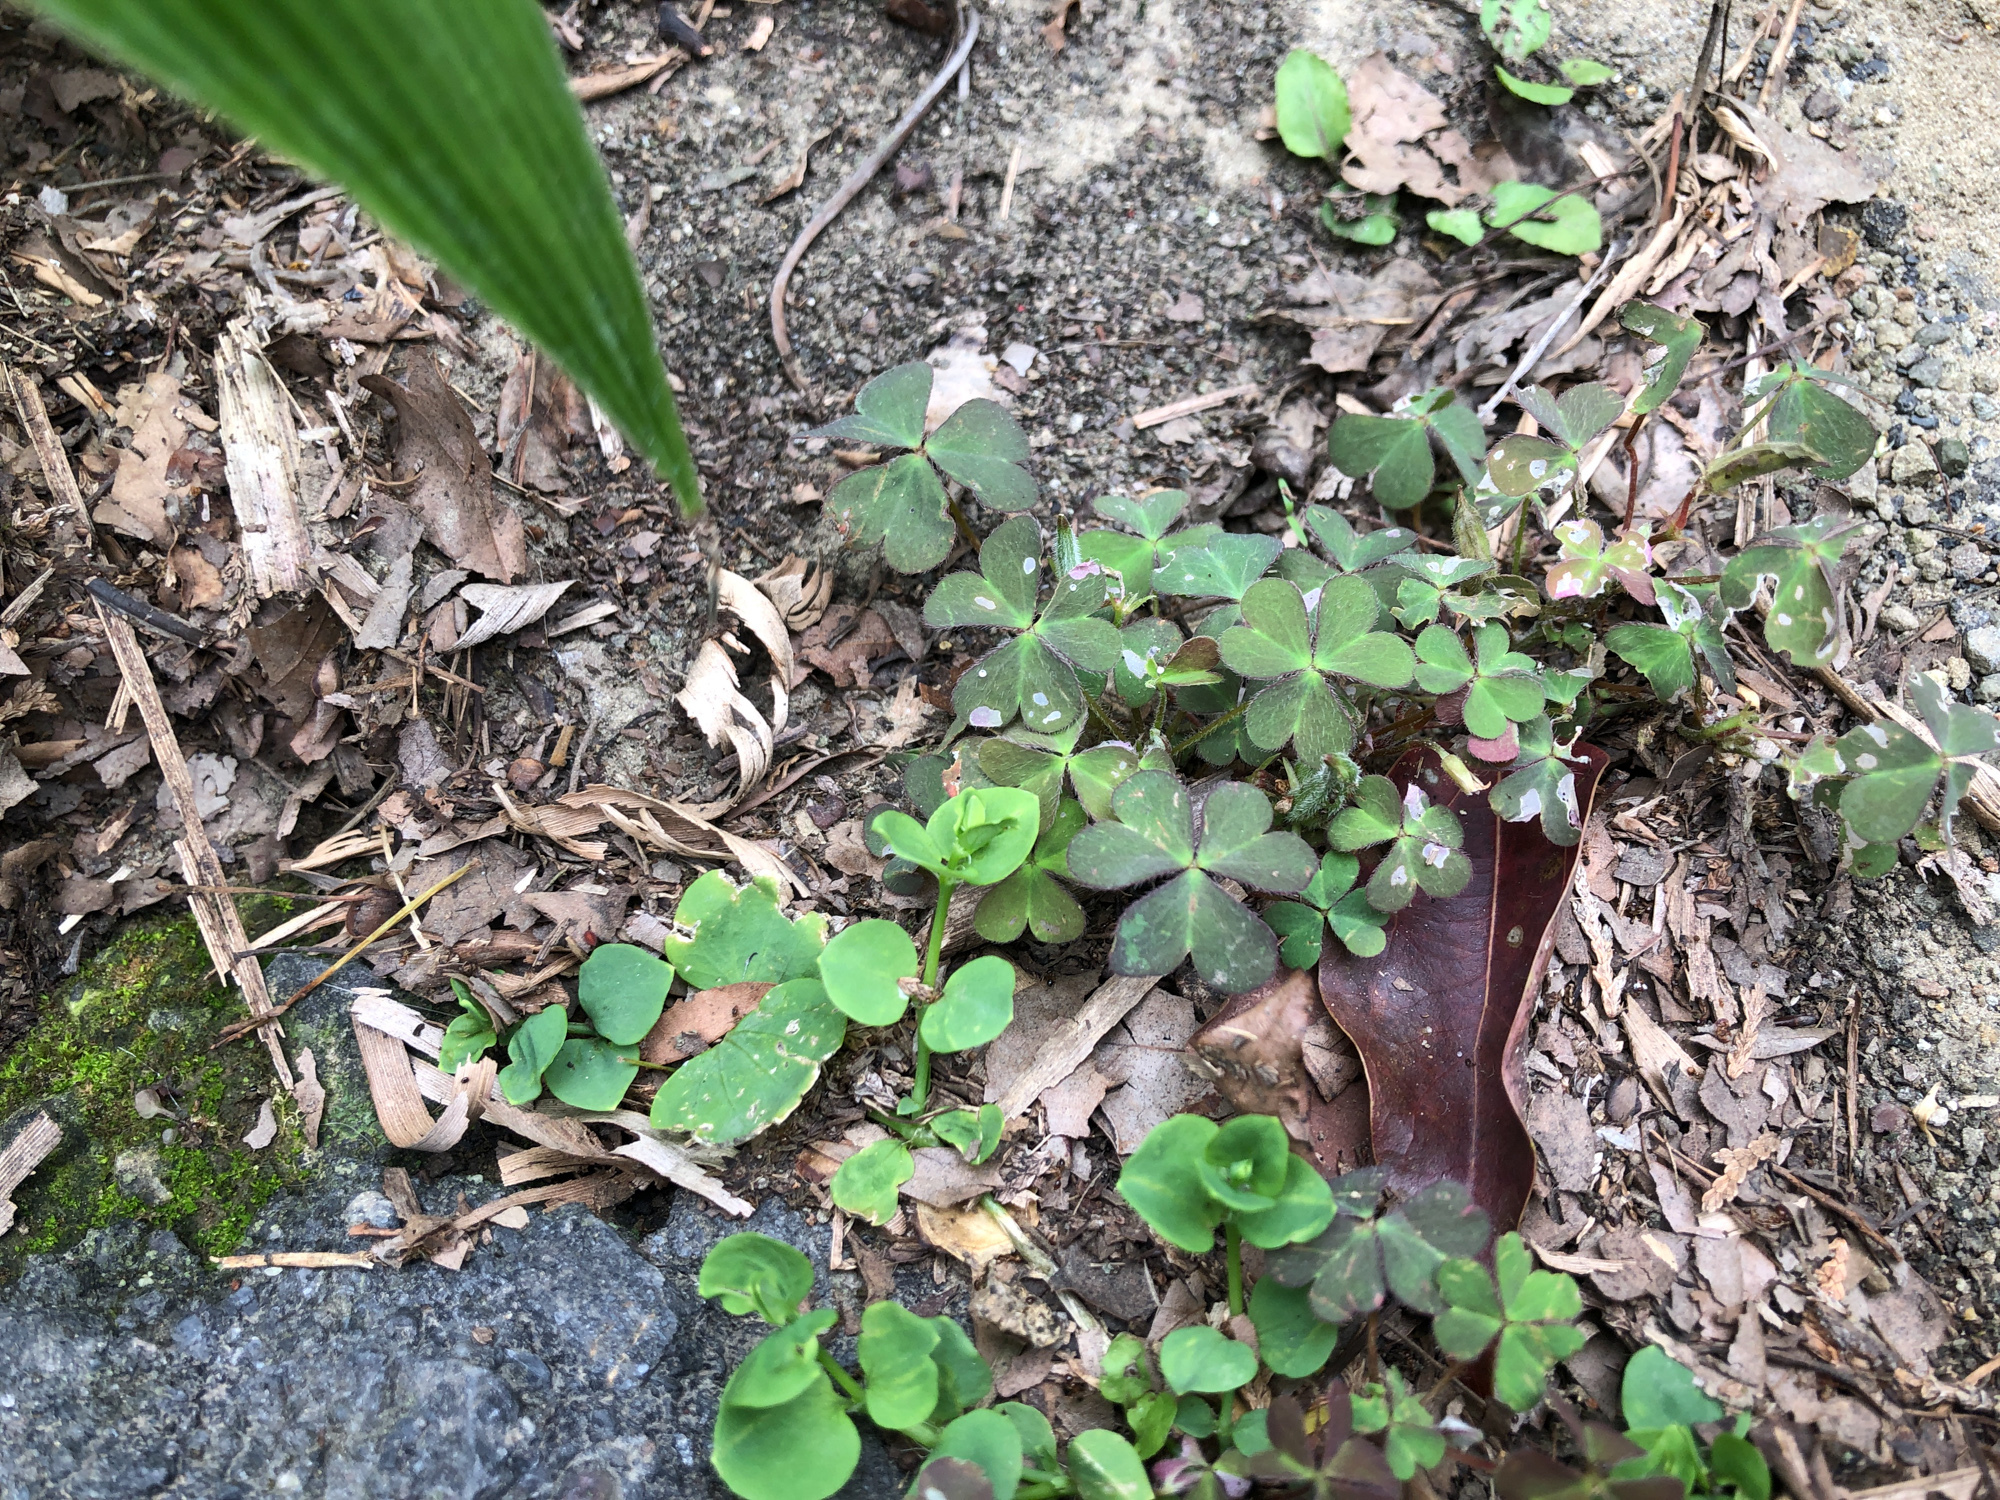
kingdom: Plantae
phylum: Tracheophyta
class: Magnoliopsida
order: Oxalidales
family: Oxalidaceae
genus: Oxalis
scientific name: Oxalis corniculata
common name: Procumbent yellow-sorrel
